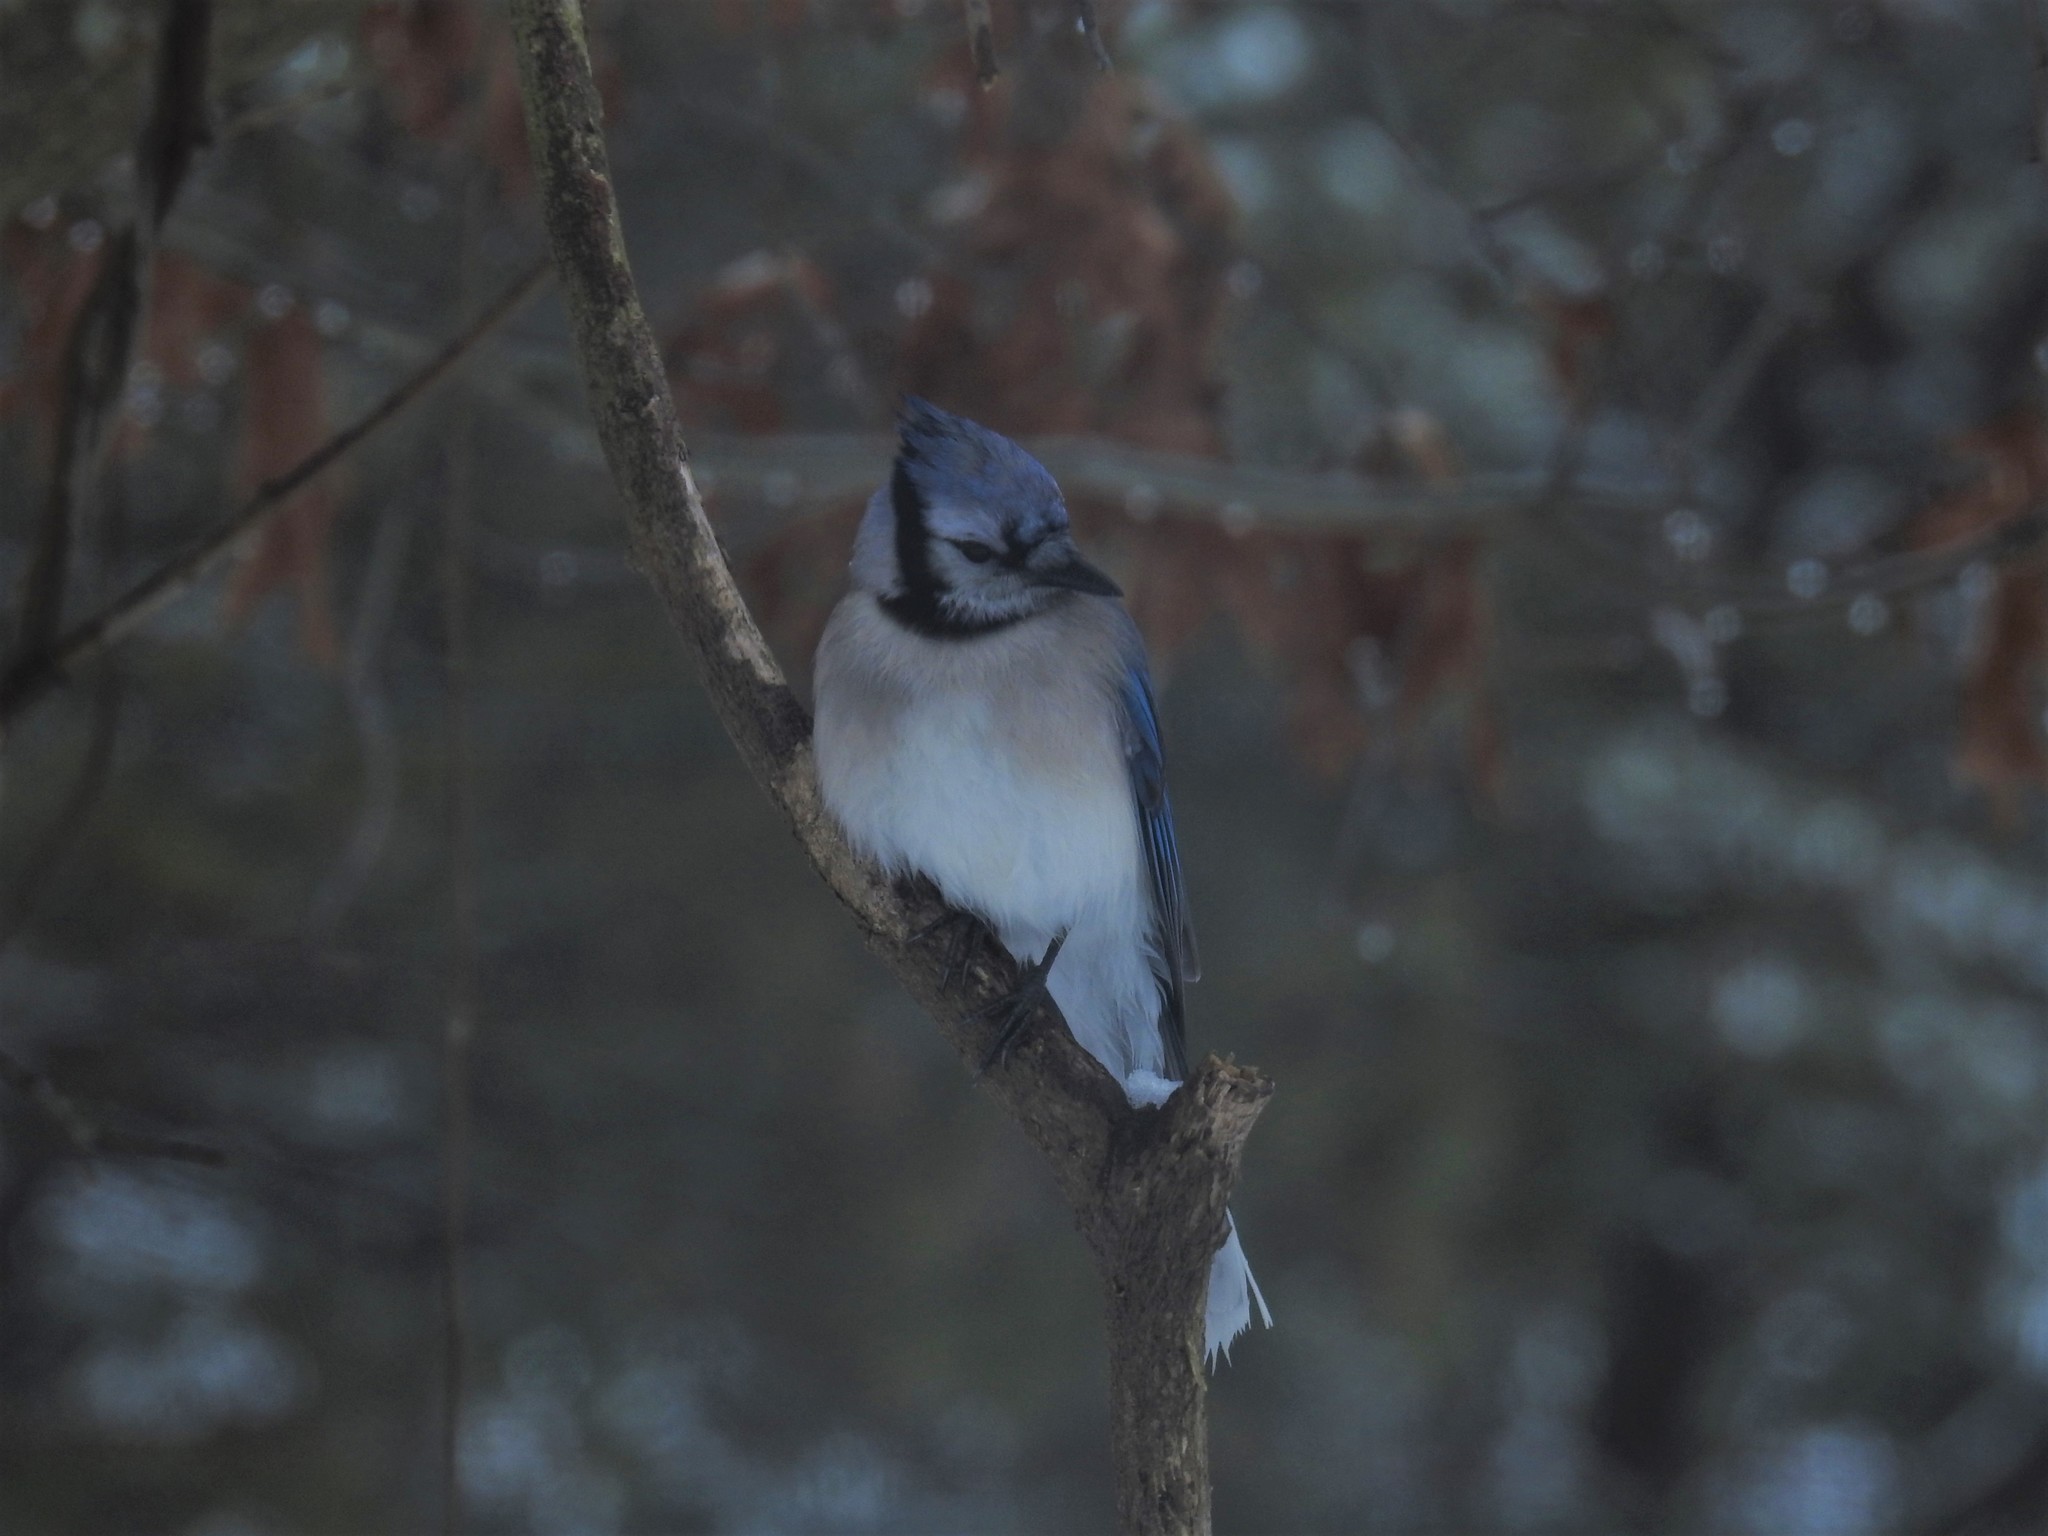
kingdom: Animalia
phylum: Chordata
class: Aves
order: Passeriformes
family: Corvidae
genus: Cyanocitta
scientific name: Cyanocitta cristata
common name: Blue jay
